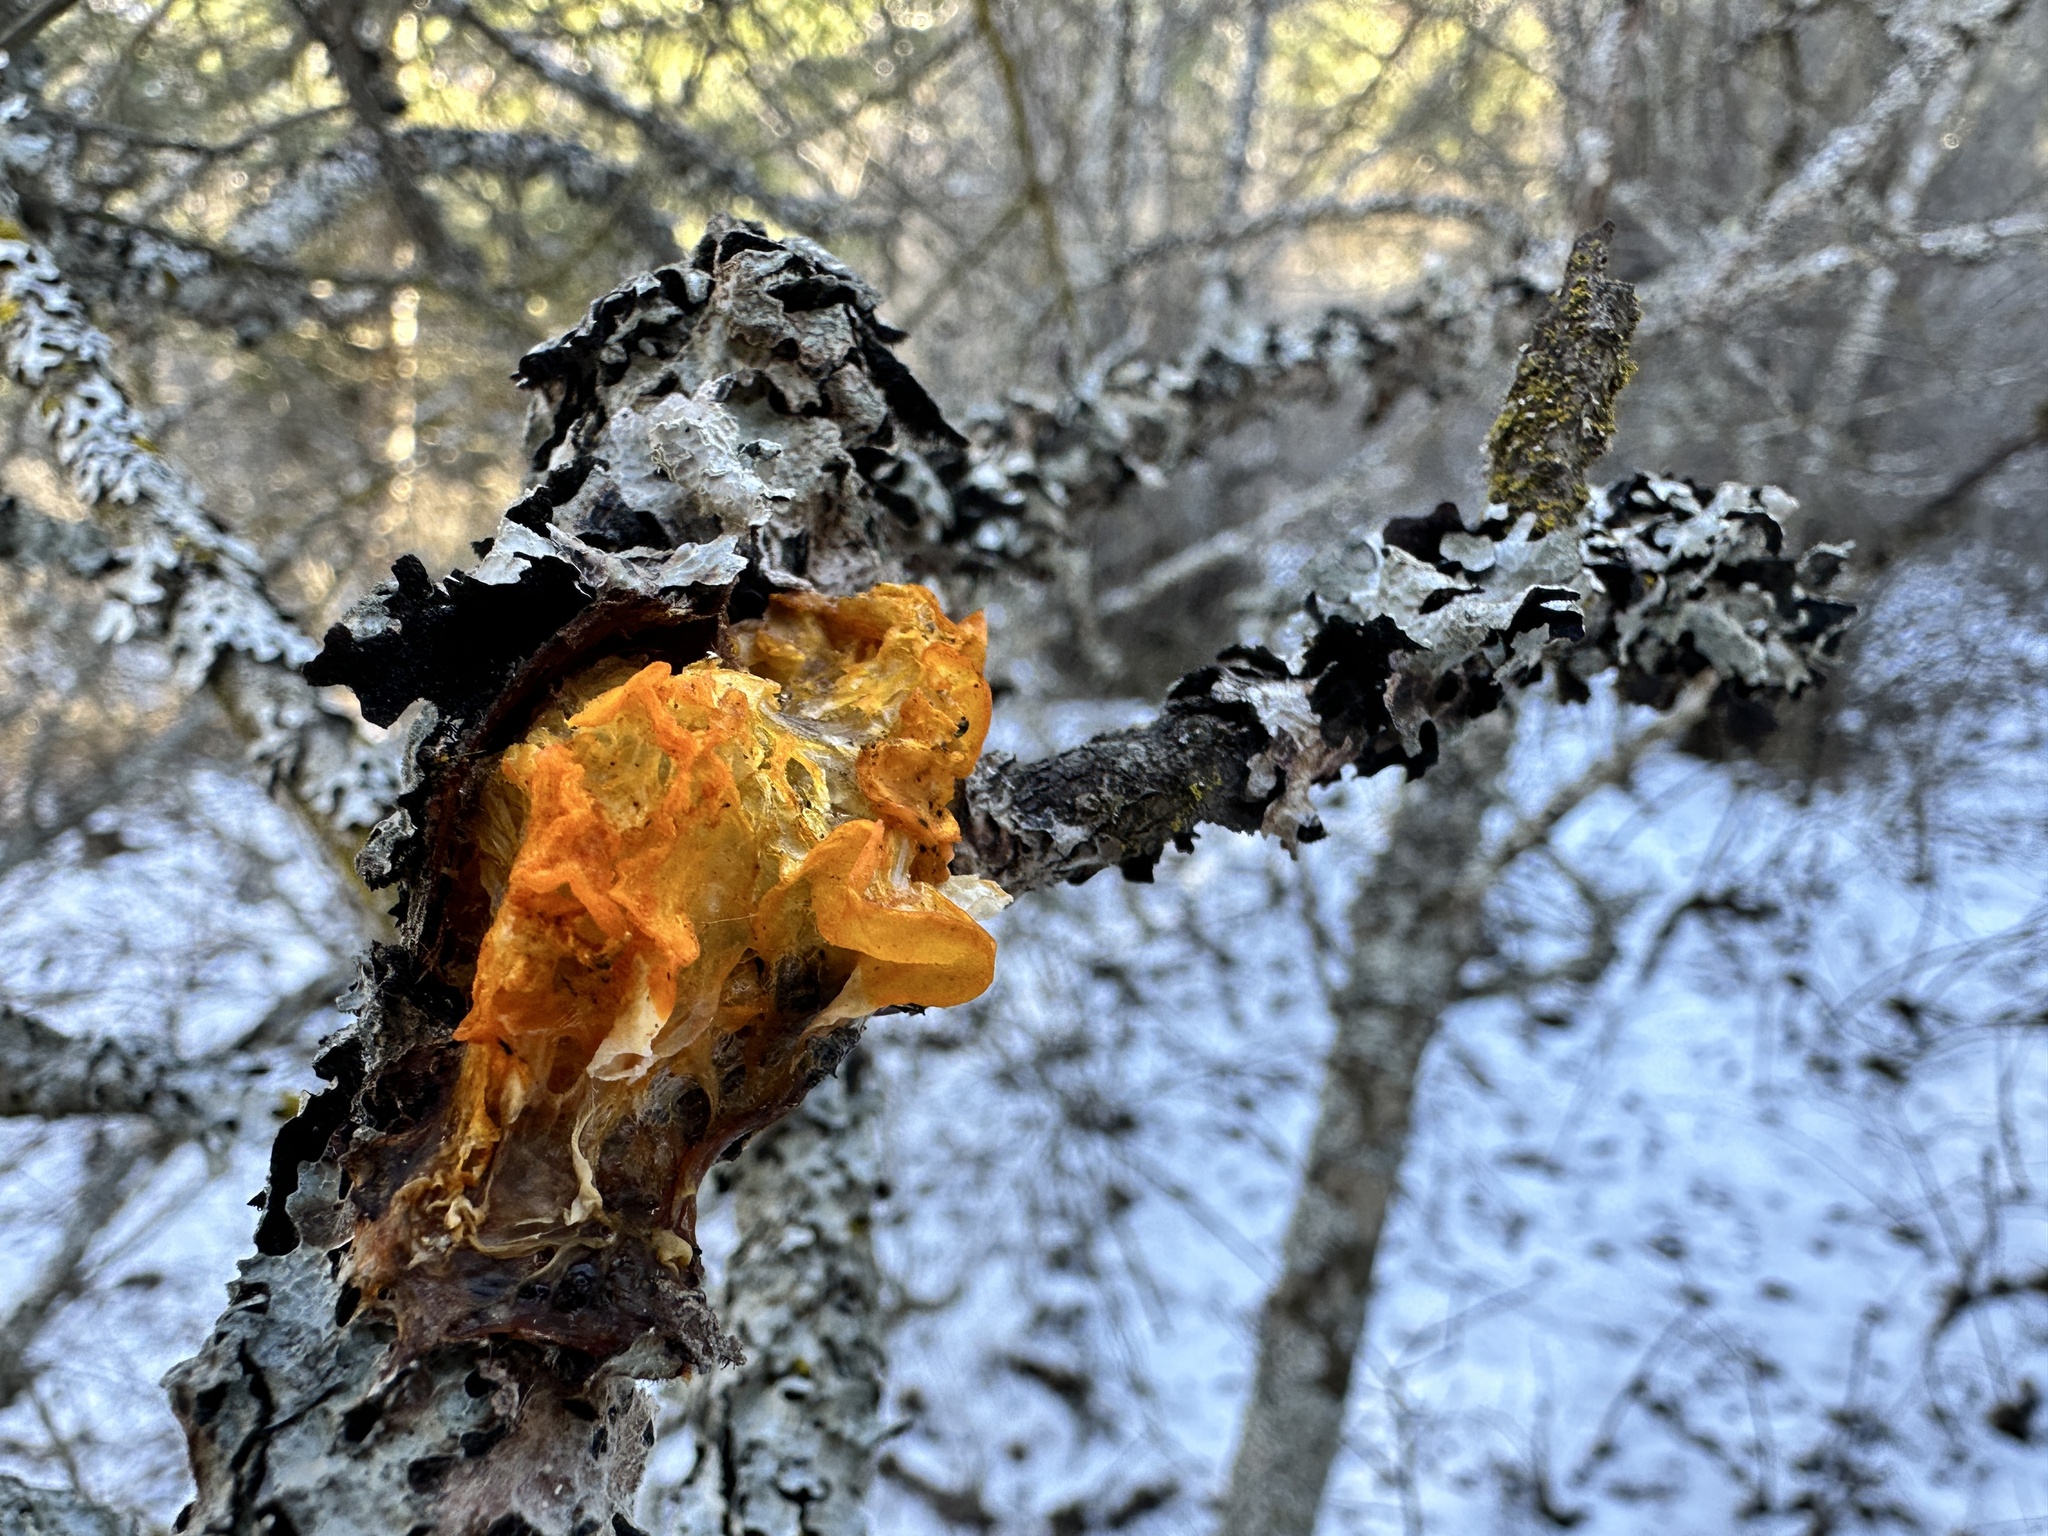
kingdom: Fungi
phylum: Basidiomycota
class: Tremellomycetes
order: Tremellales
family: Tremellaceae
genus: Tremella
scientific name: Tremella mesenterica
